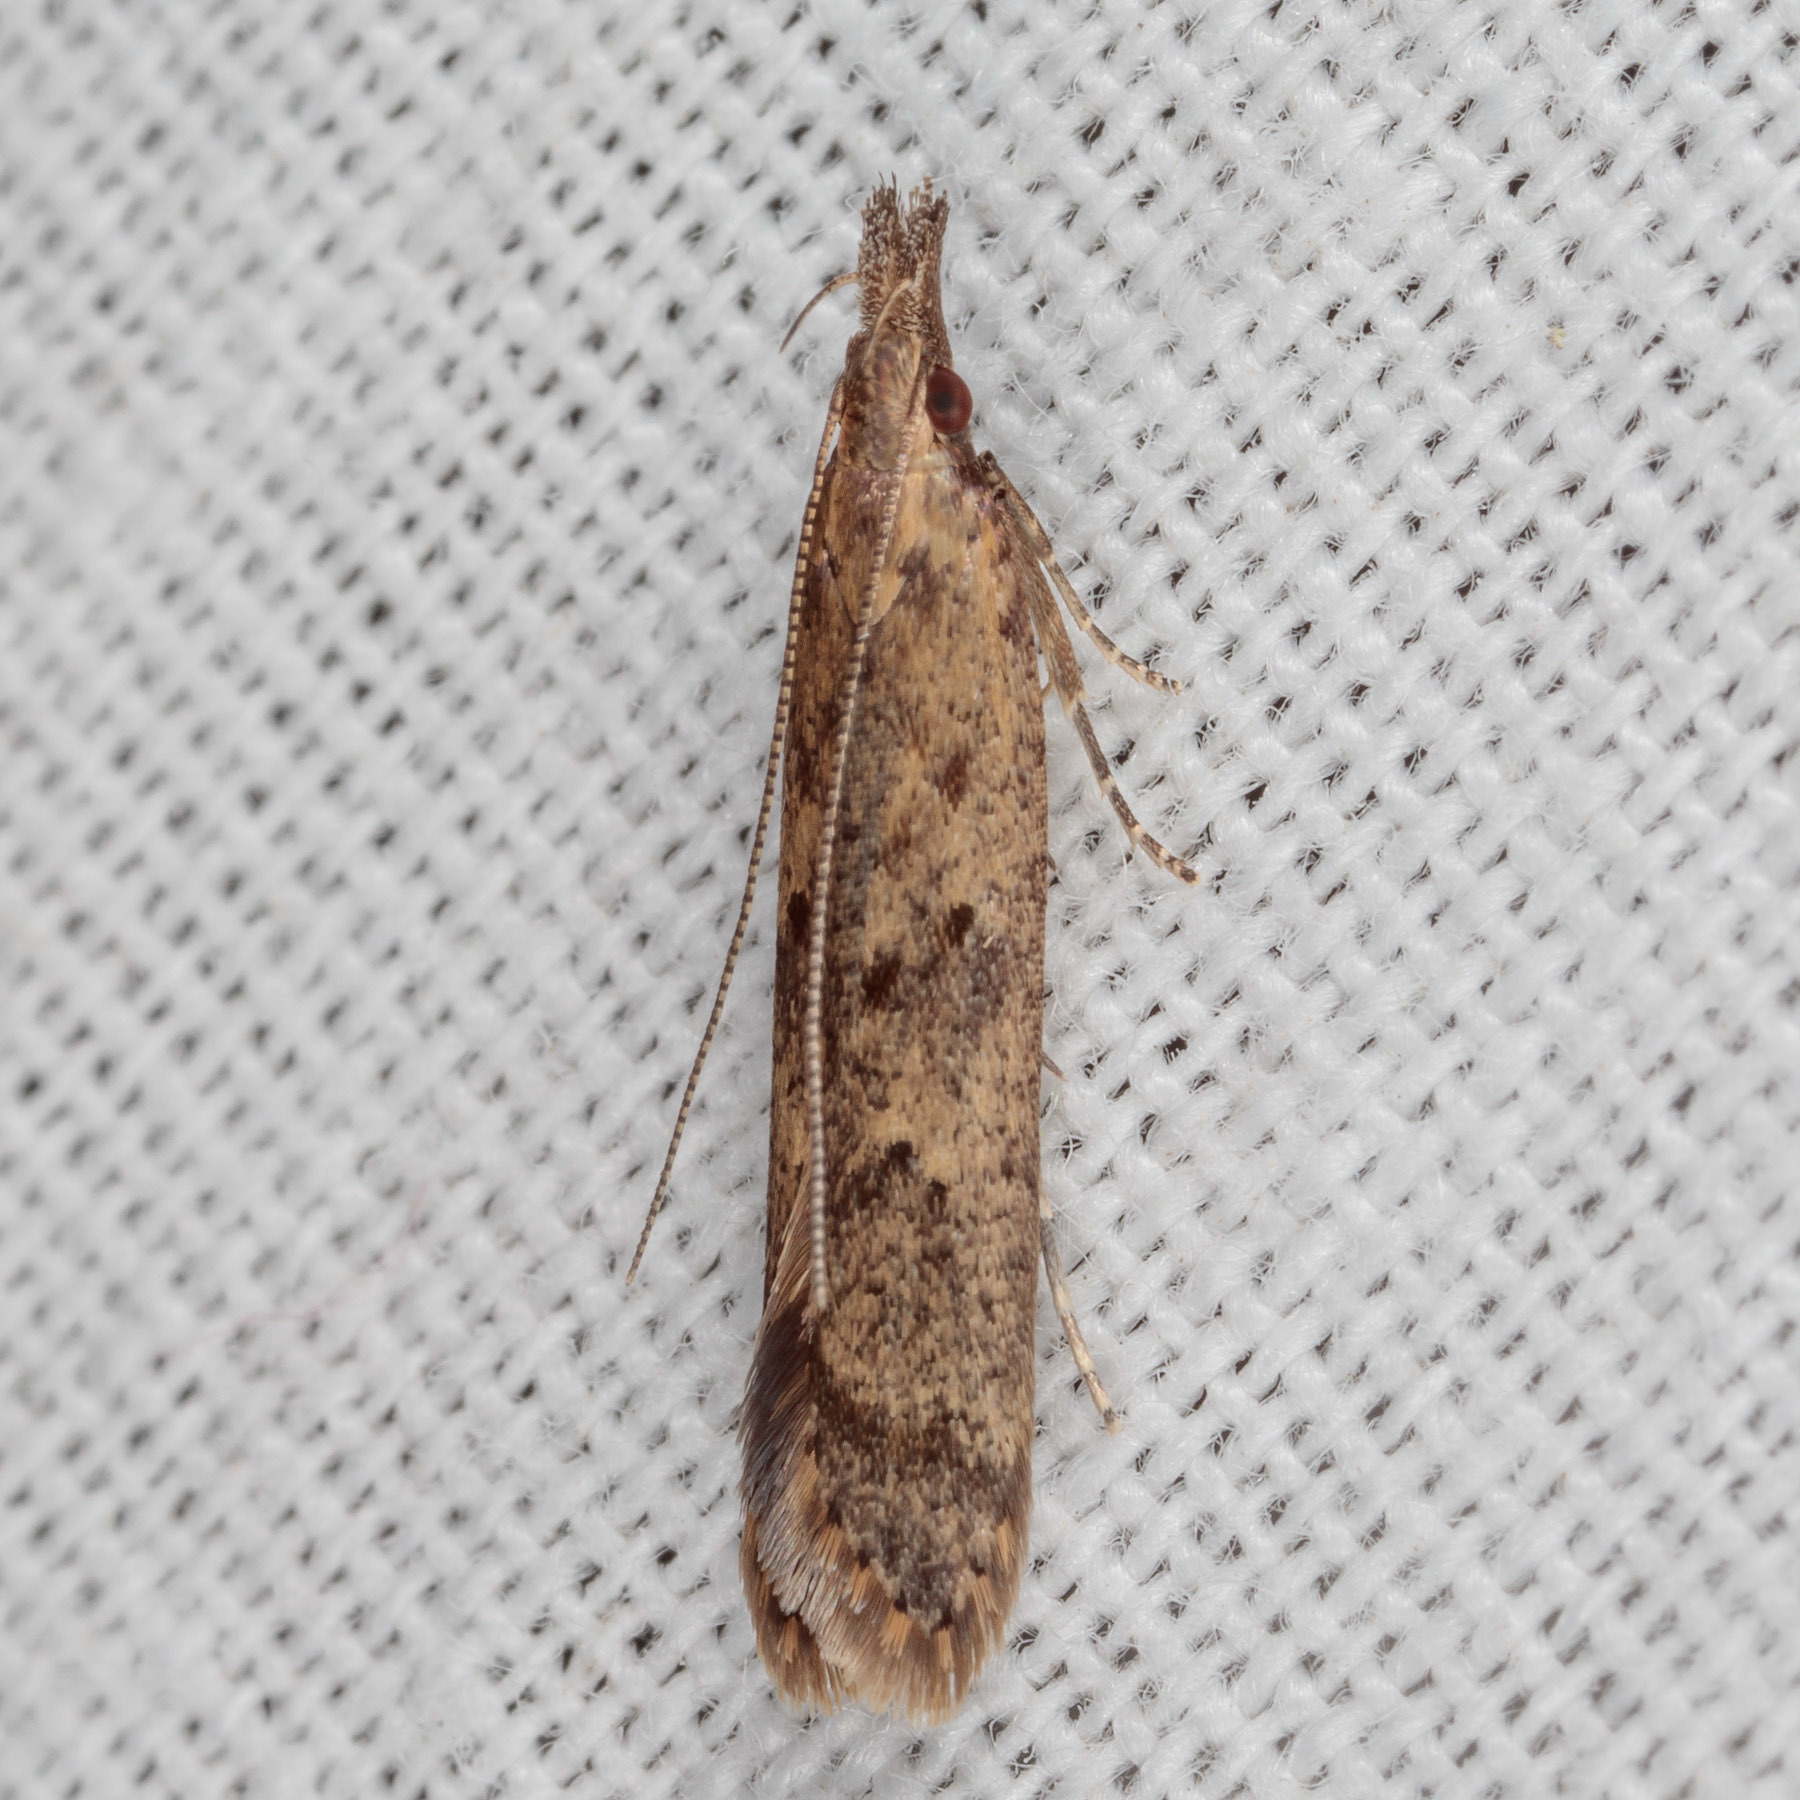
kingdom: Animalia
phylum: Arthropoda
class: Insecta
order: Lepidoptera
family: Gelechiidae
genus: Dichomeris
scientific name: Dichomeris ligulella
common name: Moth
